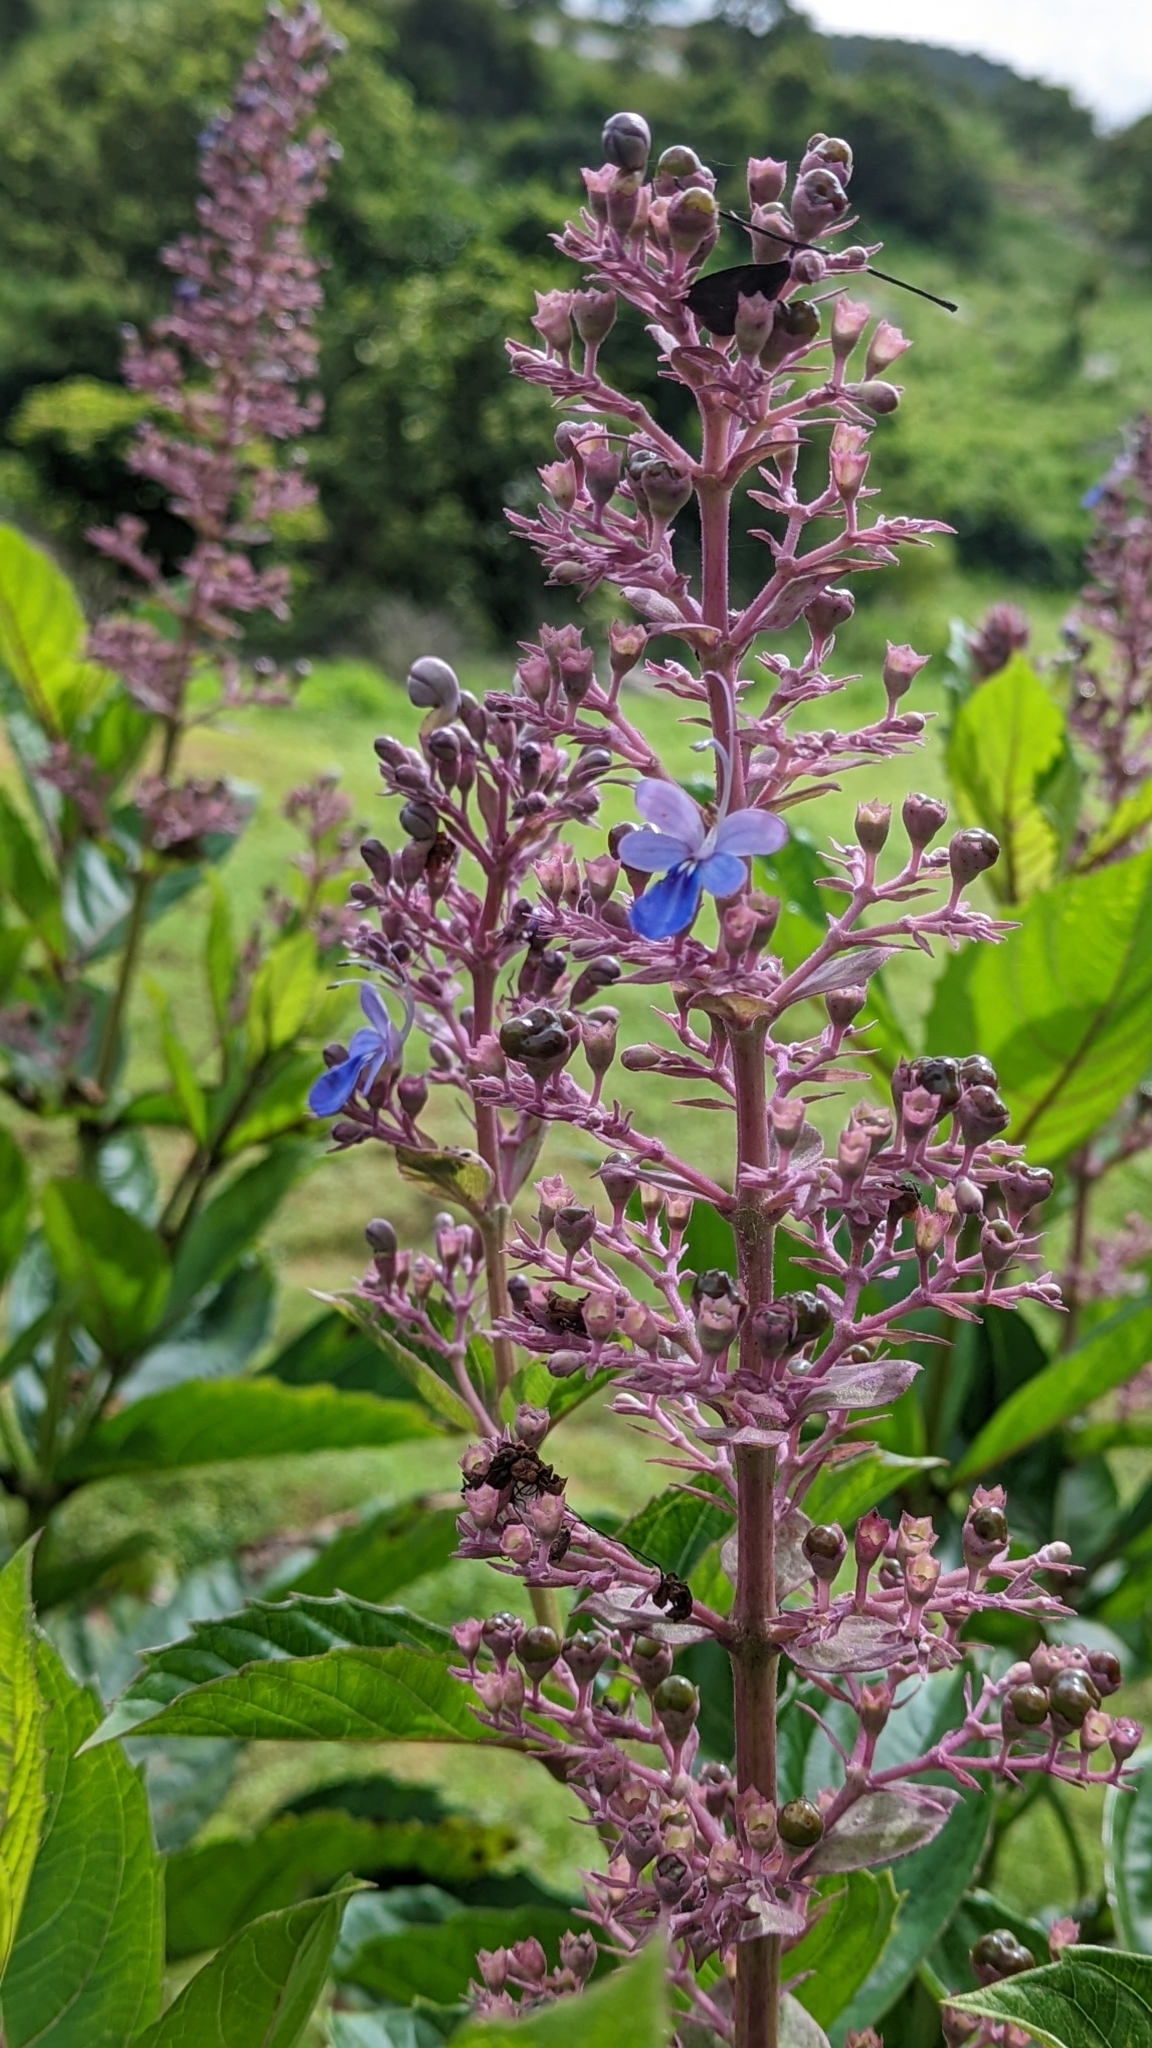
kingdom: Plantae
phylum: Tracheophyta
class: Magnoliopsida
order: Lamiales
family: Lamiaceae
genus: Rotheca
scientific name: Rotheca serrata
